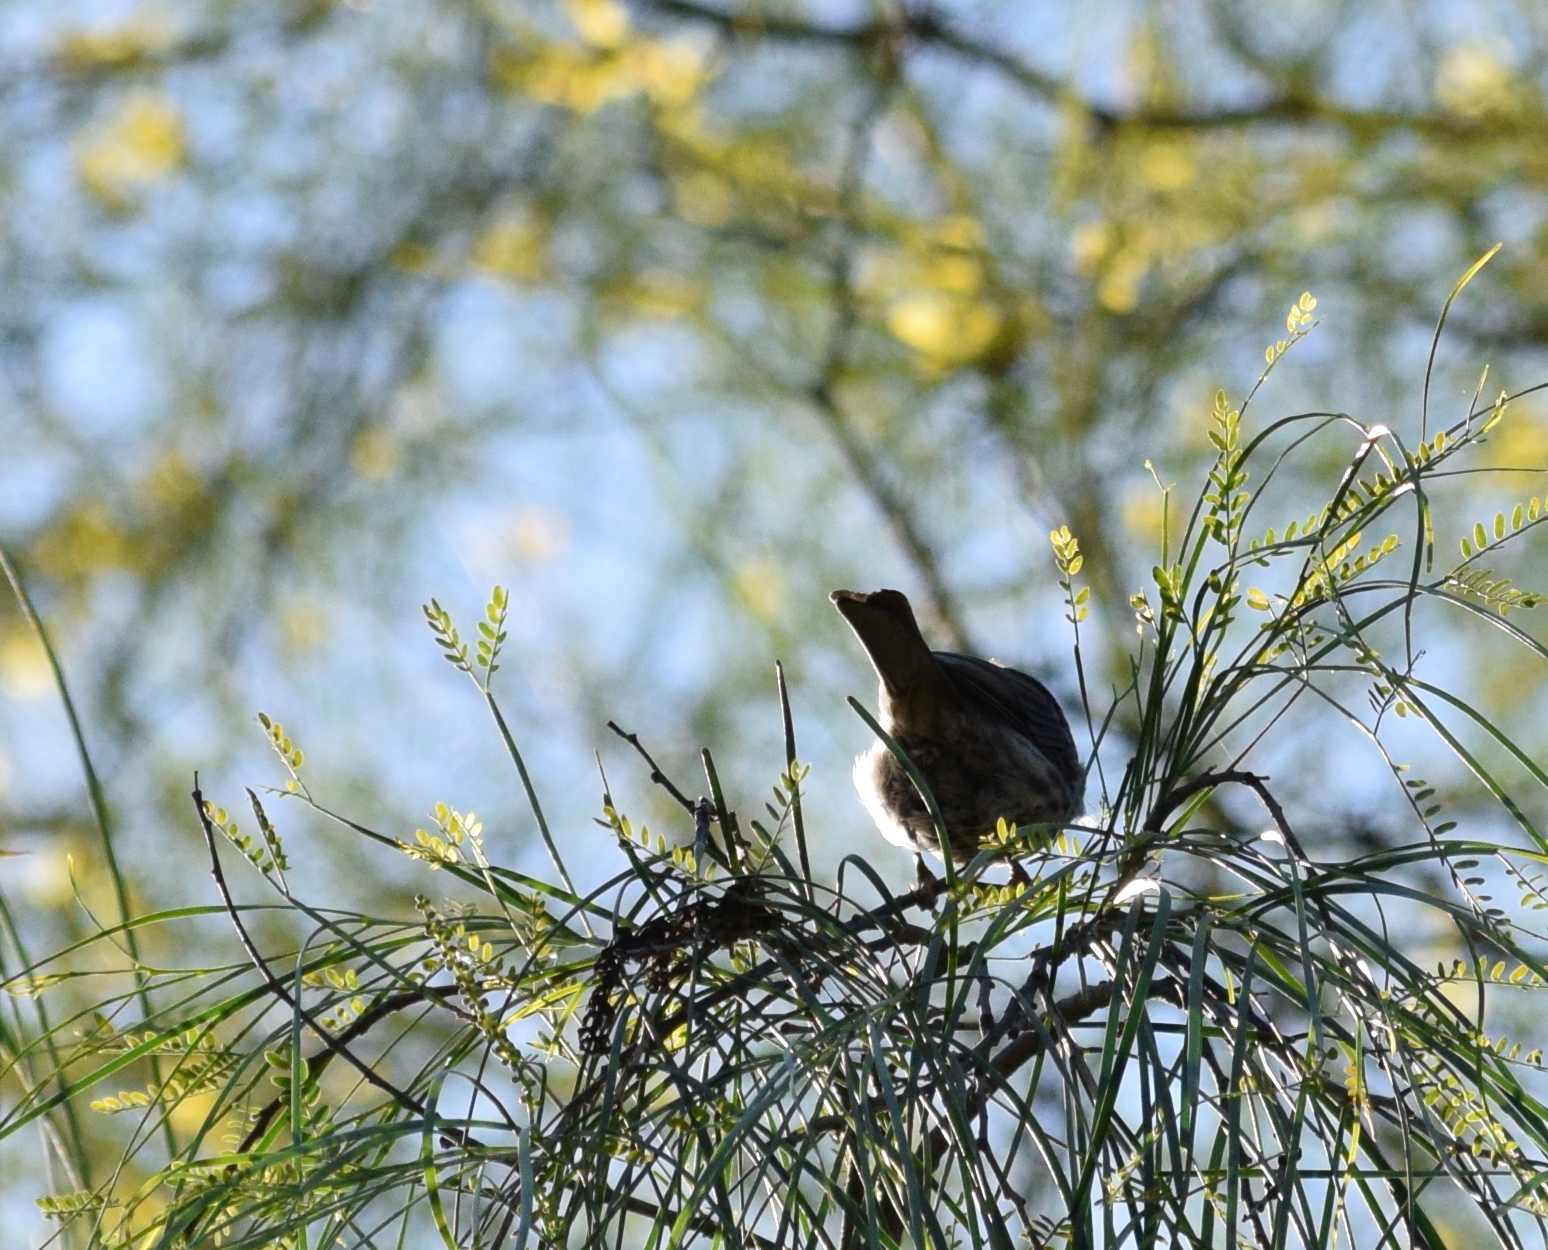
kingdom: Animalia
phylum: Chordata
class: Aves
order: Passeriformes
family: Fringillidae
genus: Haemorhous
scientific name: Haemorhous mexicanus
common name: House finch
